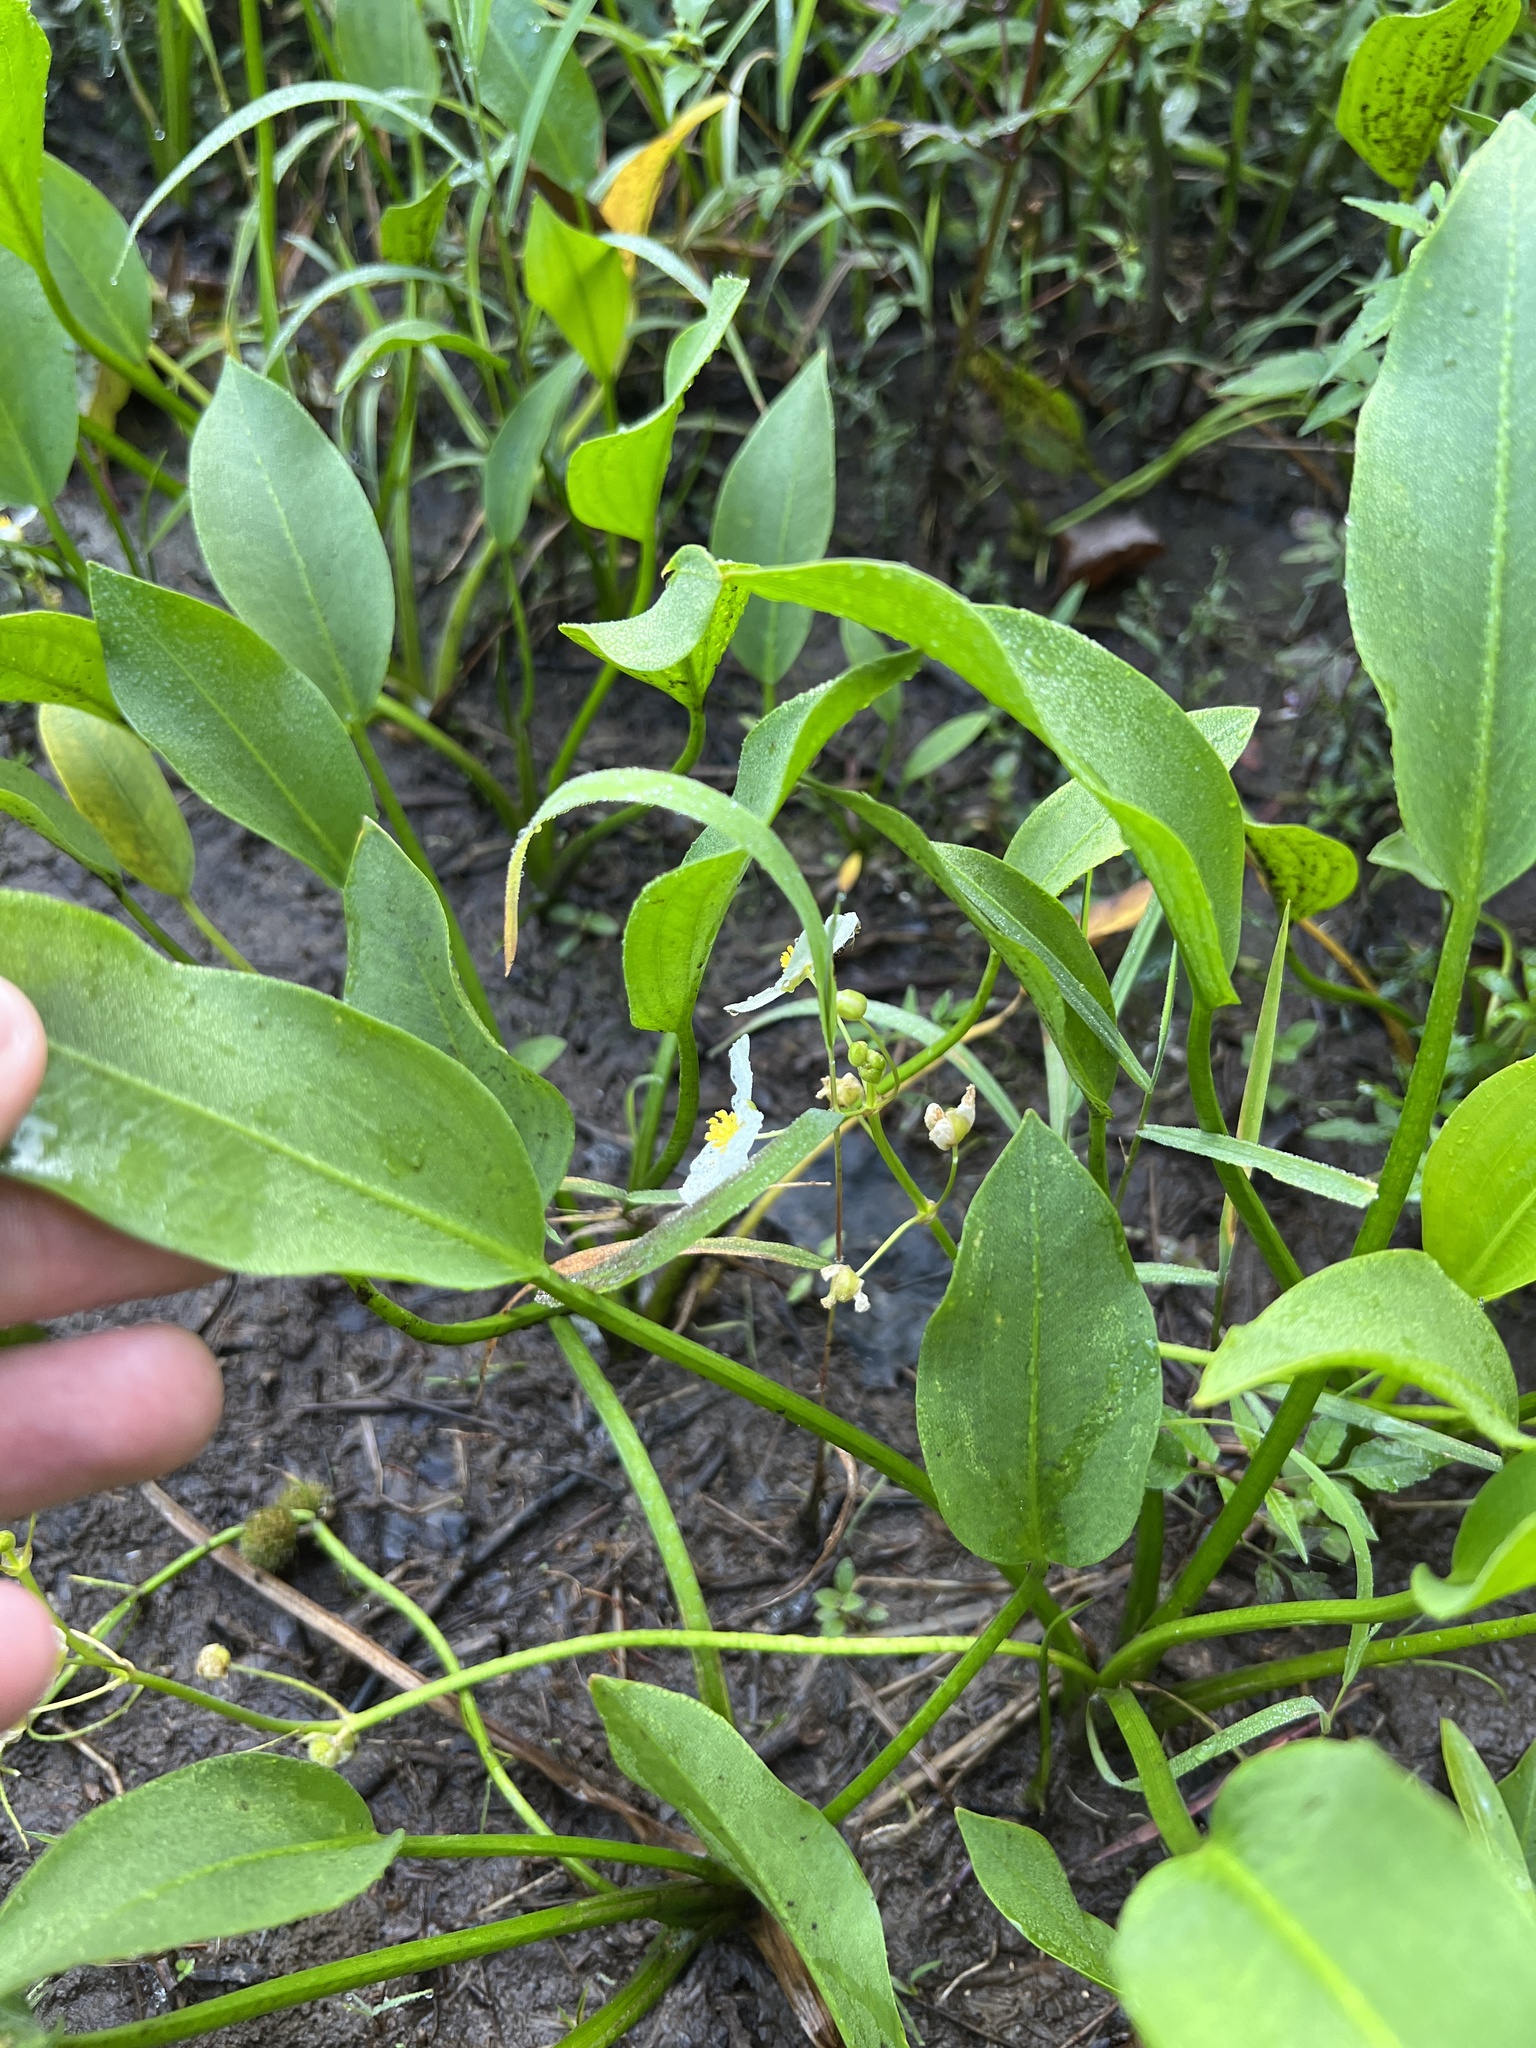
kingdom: Plantae
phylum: Tracheophyta
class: Liliopsida
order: Alismatales
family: Alismataceae
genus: Sagittaria
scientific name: Sagittaria rigida
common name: Canadian arrowhead
